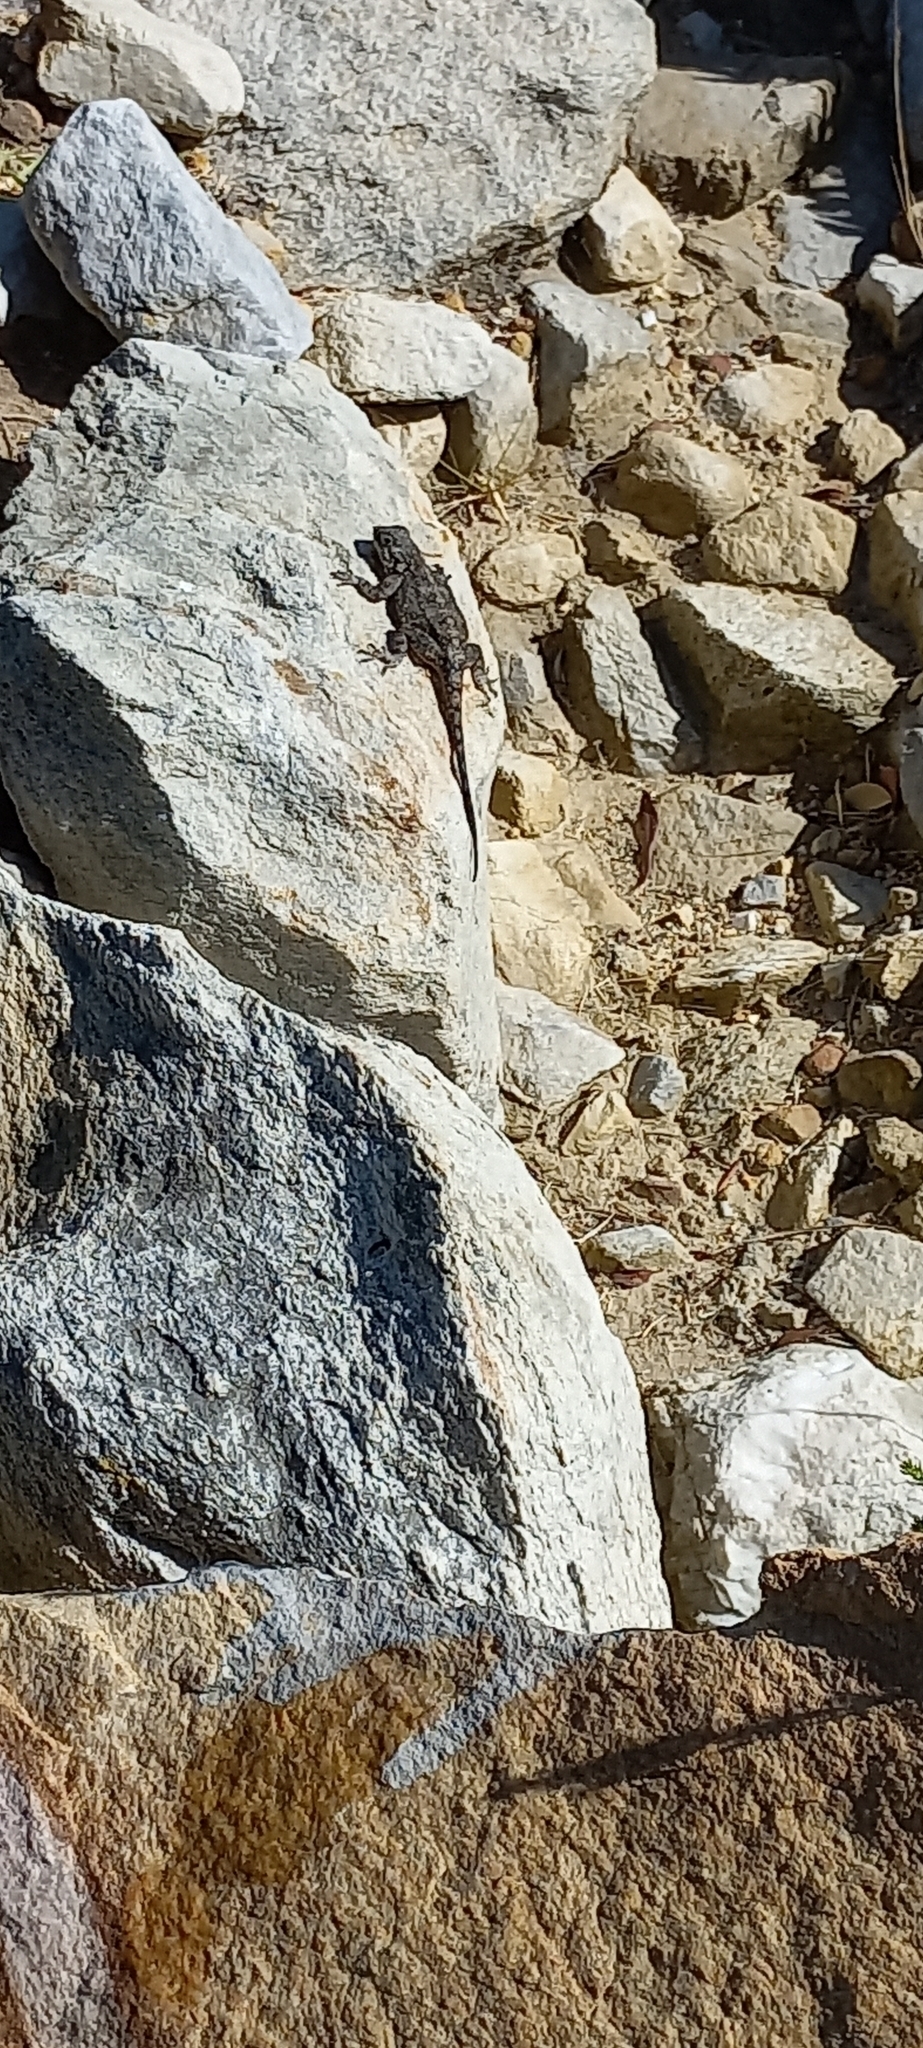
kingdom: Animalia
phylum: Chordata
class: Squamata
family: Agamidae
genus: Agama
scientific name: Agama atra
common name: Southern african rock agama
